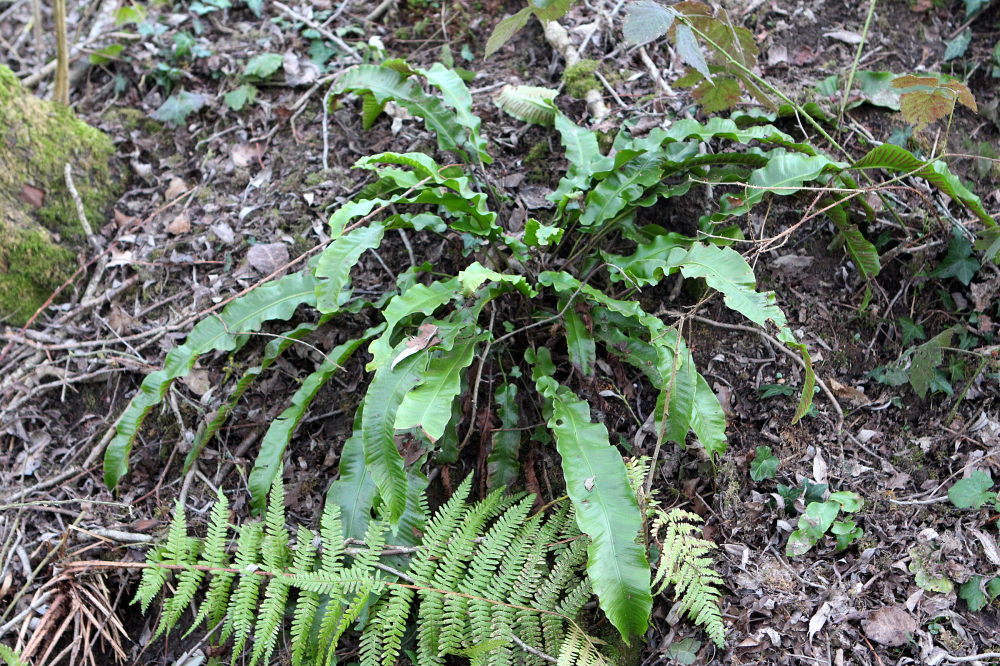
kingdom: Plantae
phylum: Tracheophyta
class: Polypodiopsida
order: Polypodiales
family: Aspleniaceae
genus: Asplenium
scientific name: Asplenium scolopendrium
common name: Hart's-tongue fern
